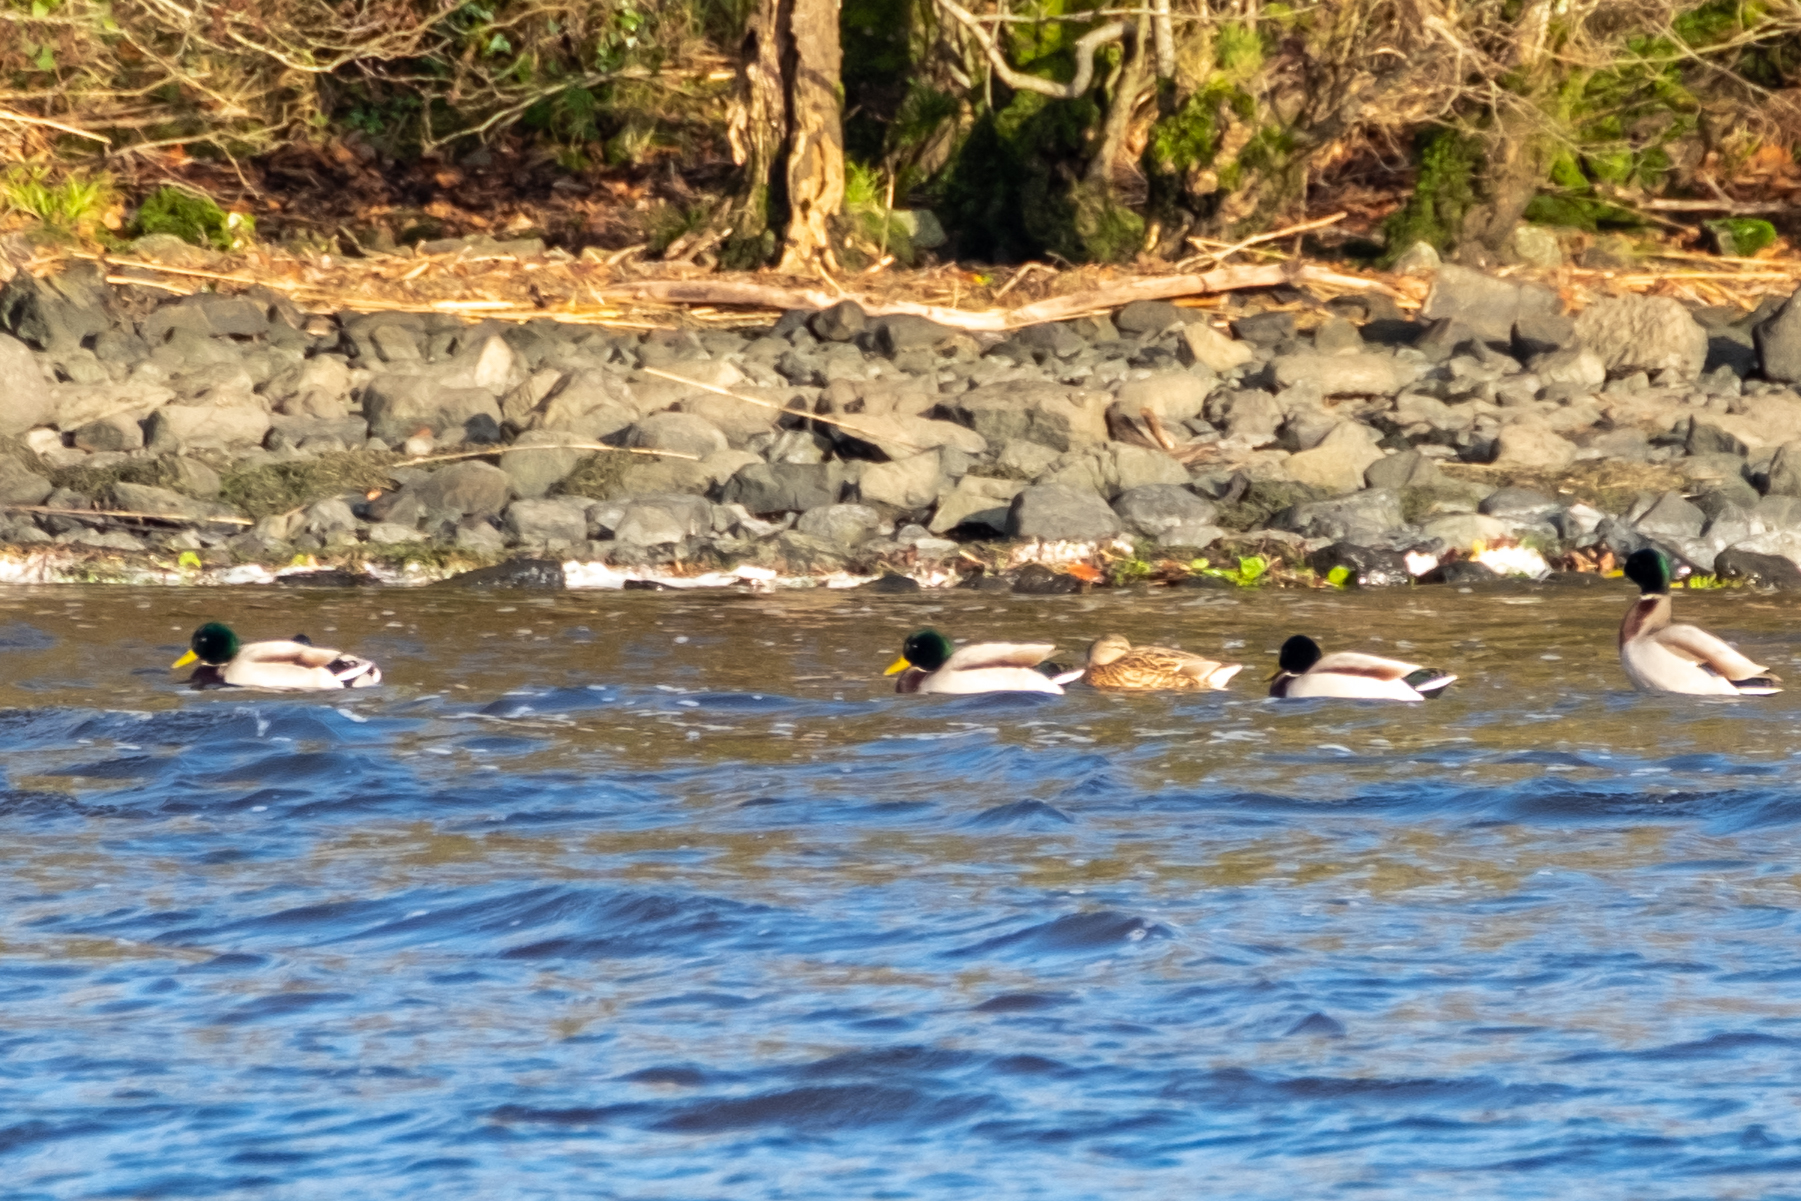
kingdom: Animalia
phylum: Chordata
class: Aves
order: Anseriformes
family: Anatidae
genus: Anas
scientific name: Anas platyrhynchos
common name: Mallard
